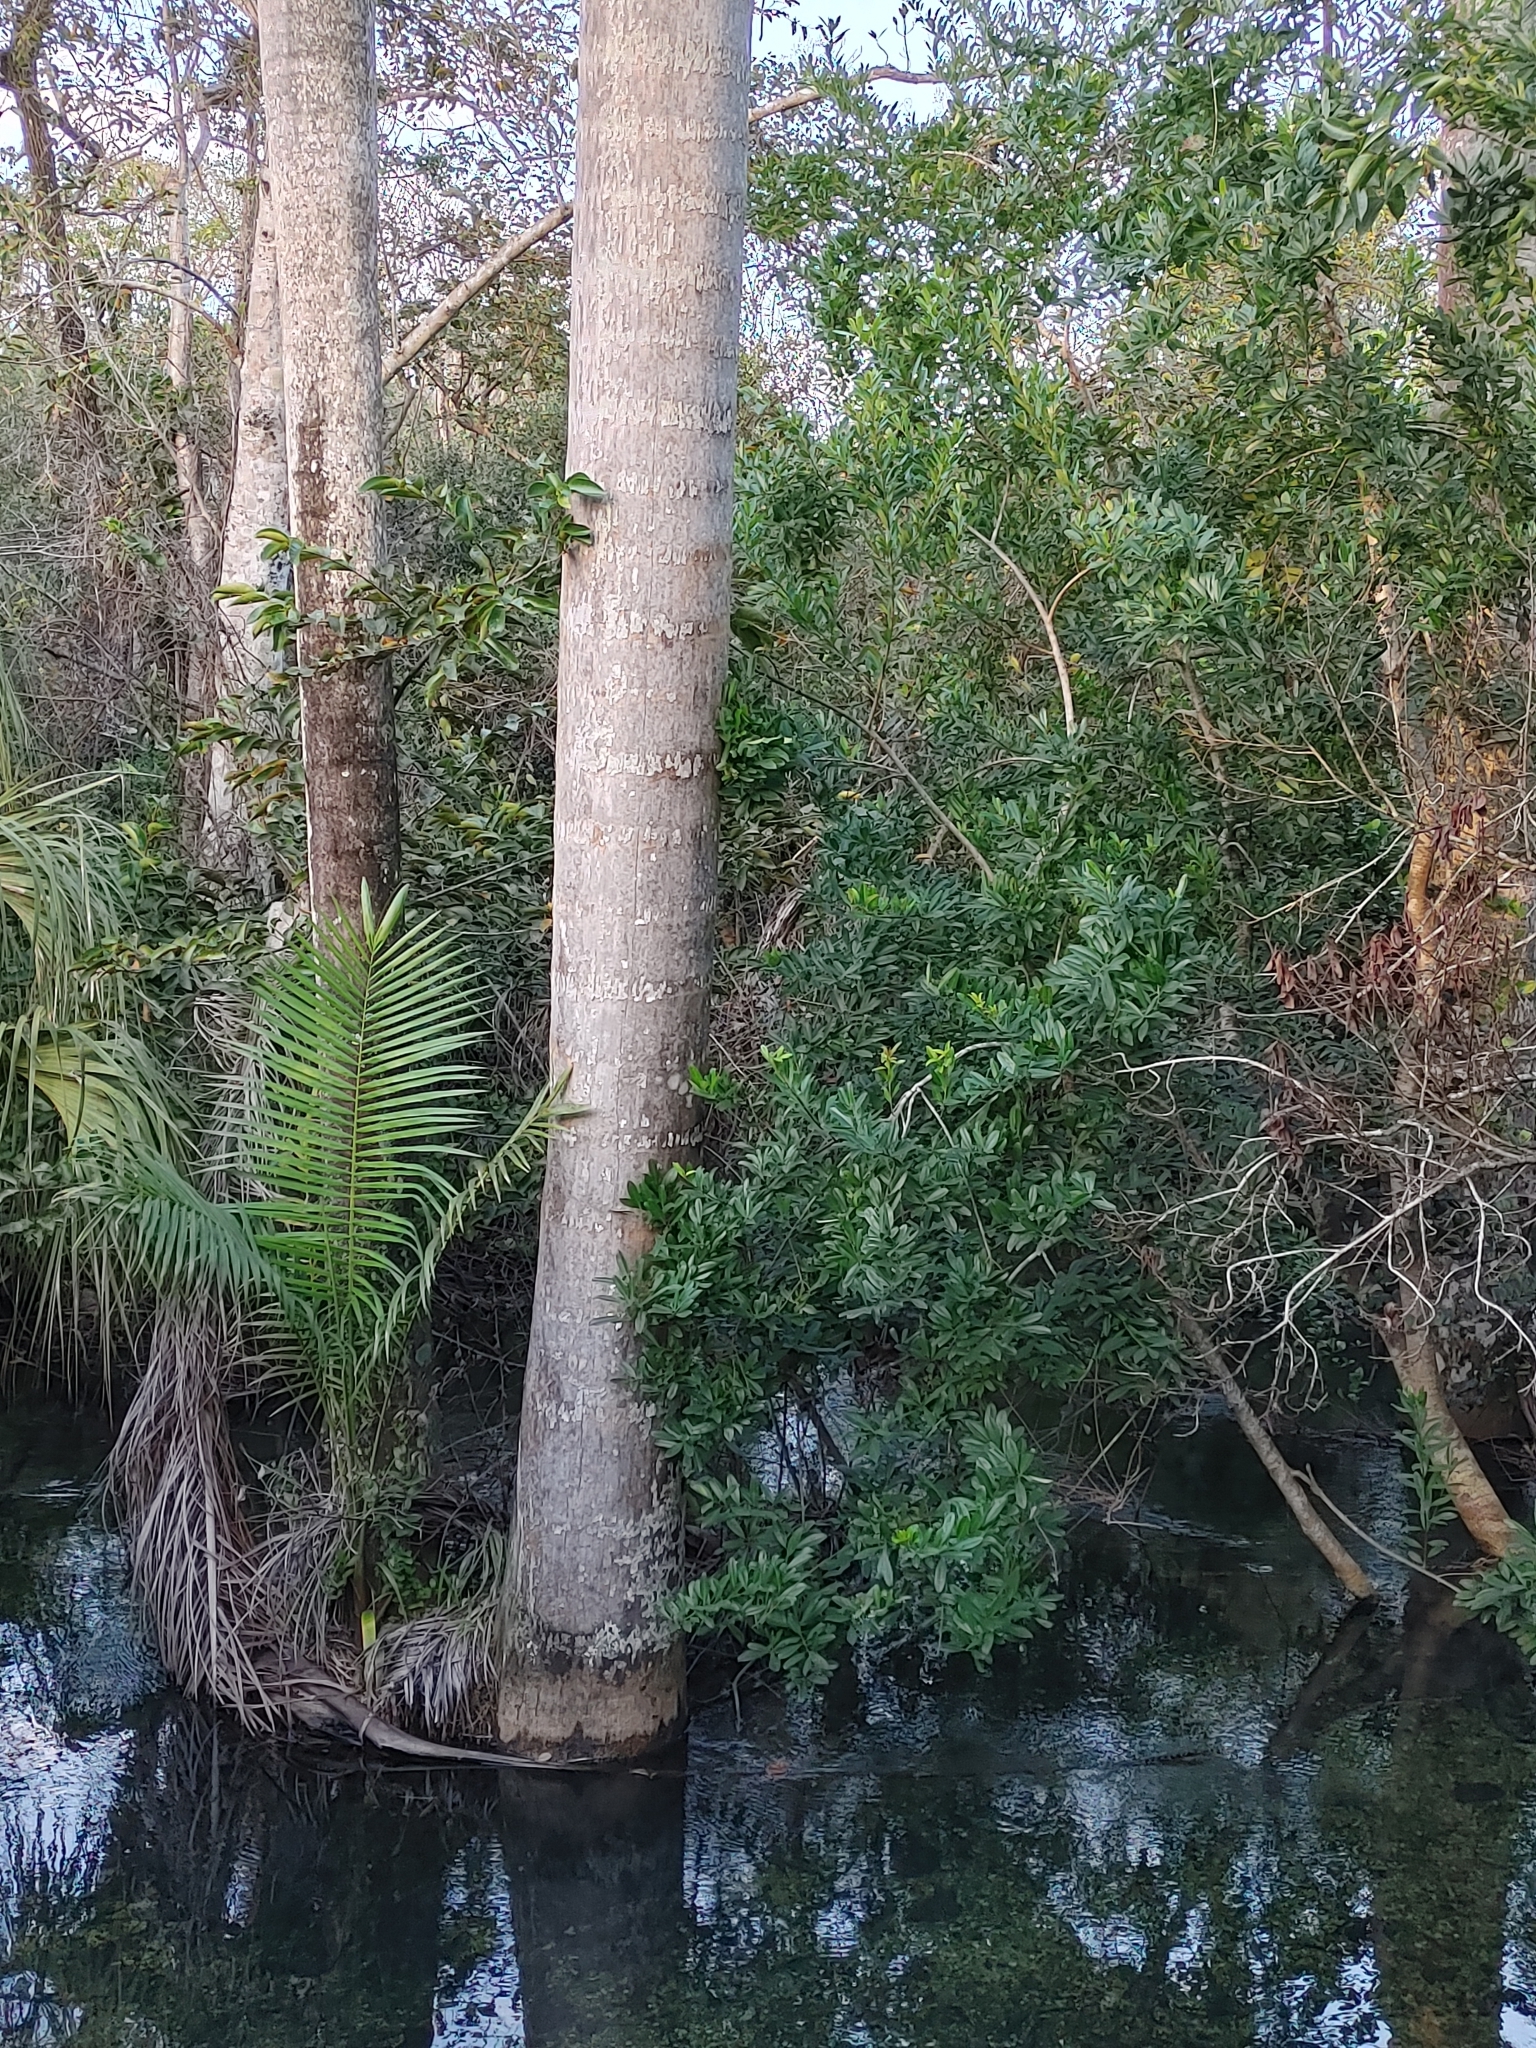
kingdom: Plantae
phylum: Tracheophyta
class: Liliopsida
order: Arecales
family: Arecaceae
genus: Roystonea
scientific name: Roystonea regia
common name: Florida royal palm
